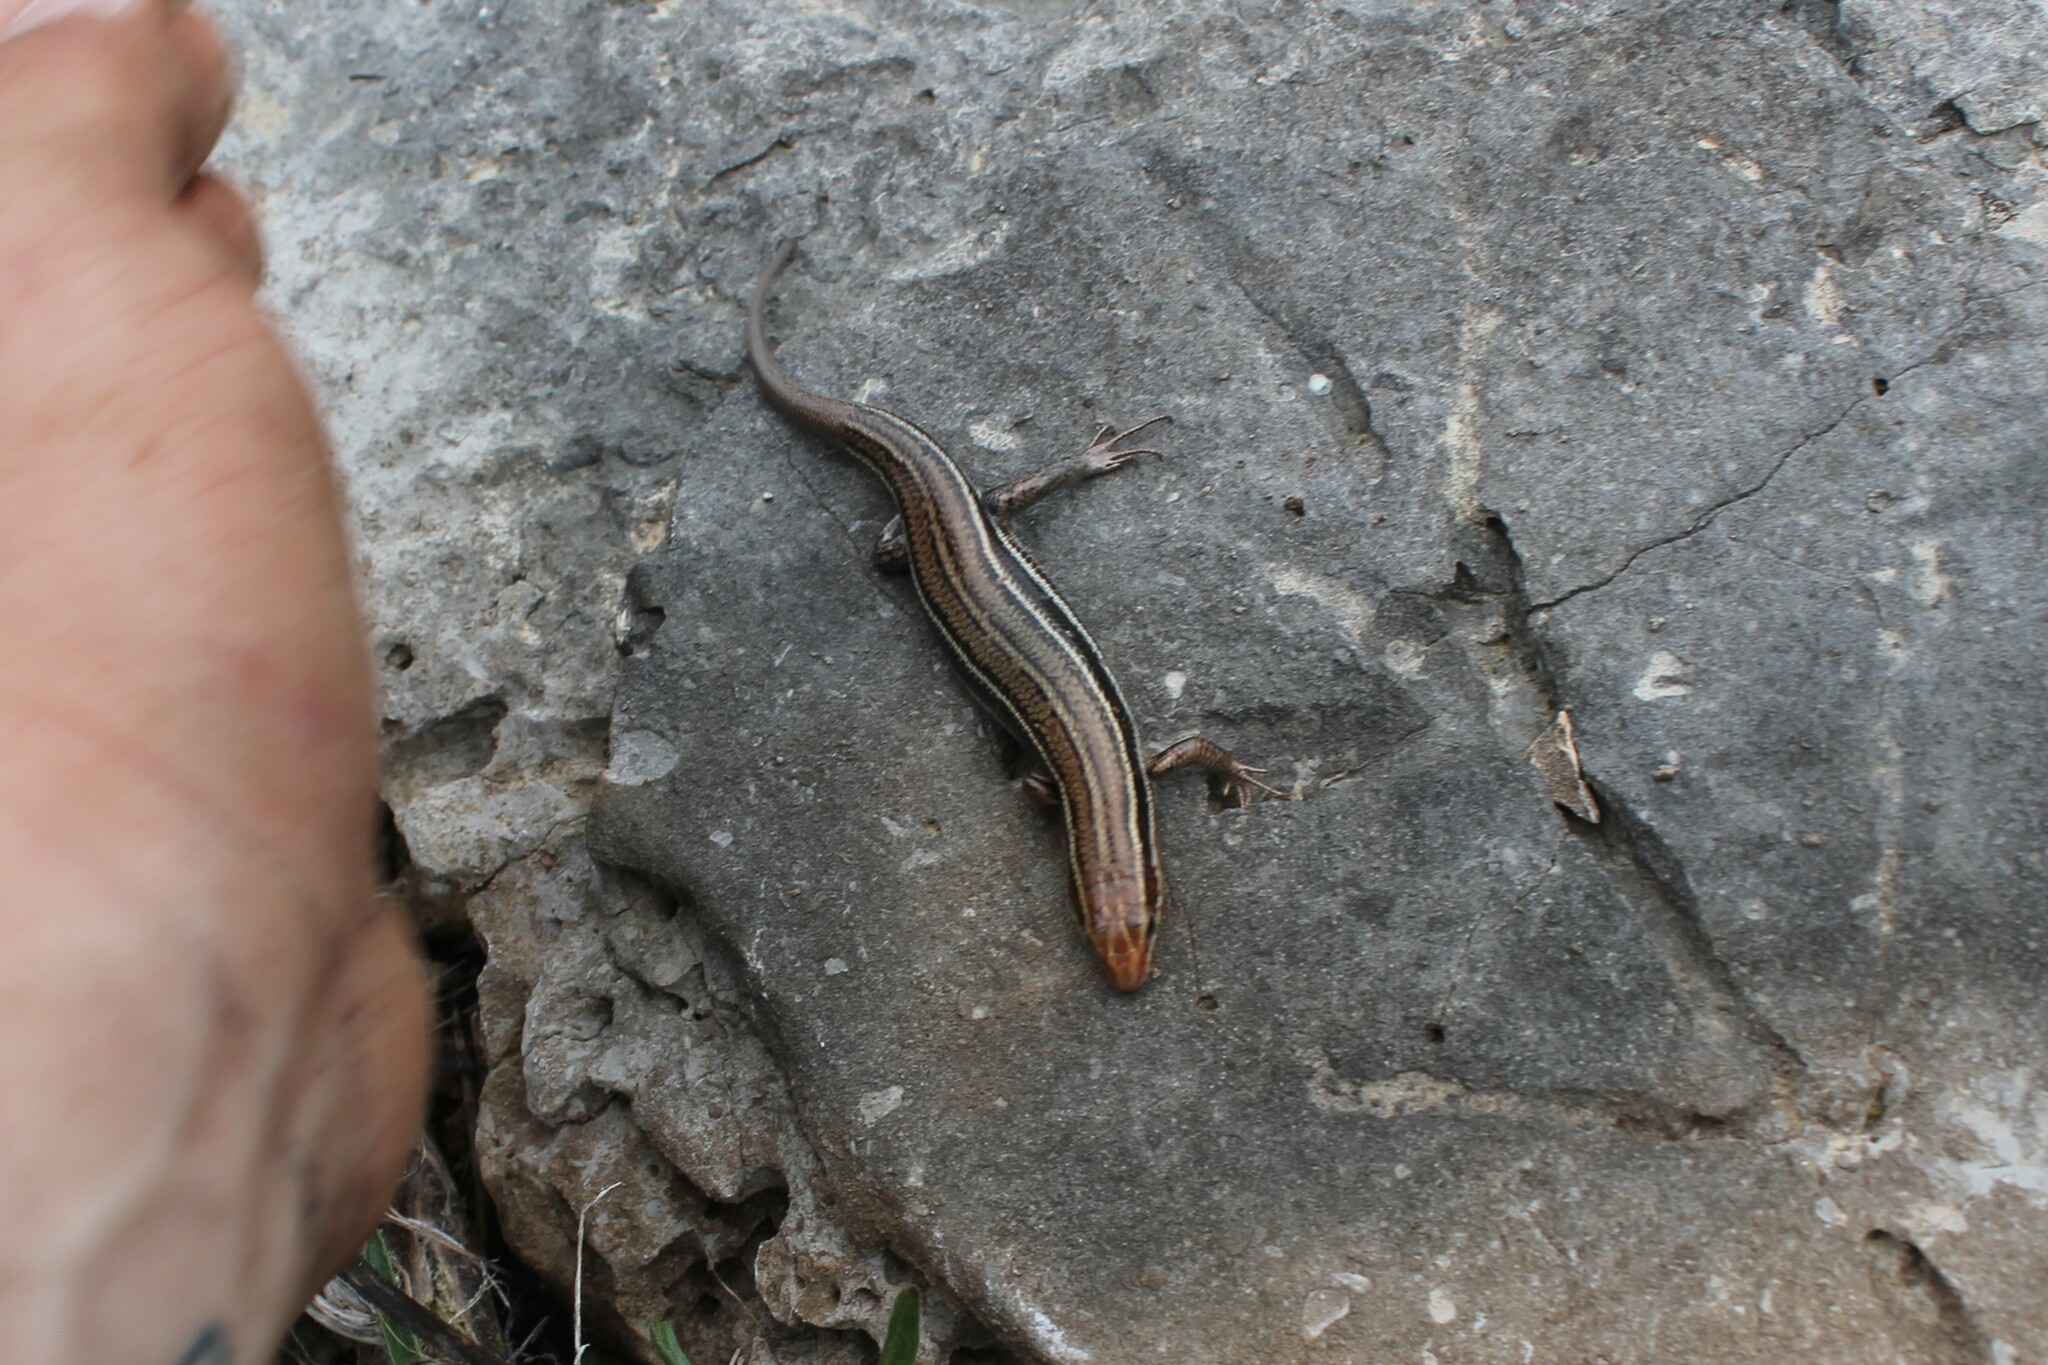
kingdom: Animalia
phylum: Chordata
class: Squamata
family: Scincidae
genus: Plestiodon
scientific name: Plestiodon inexpectatus
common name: Southeastern five-lined skink
